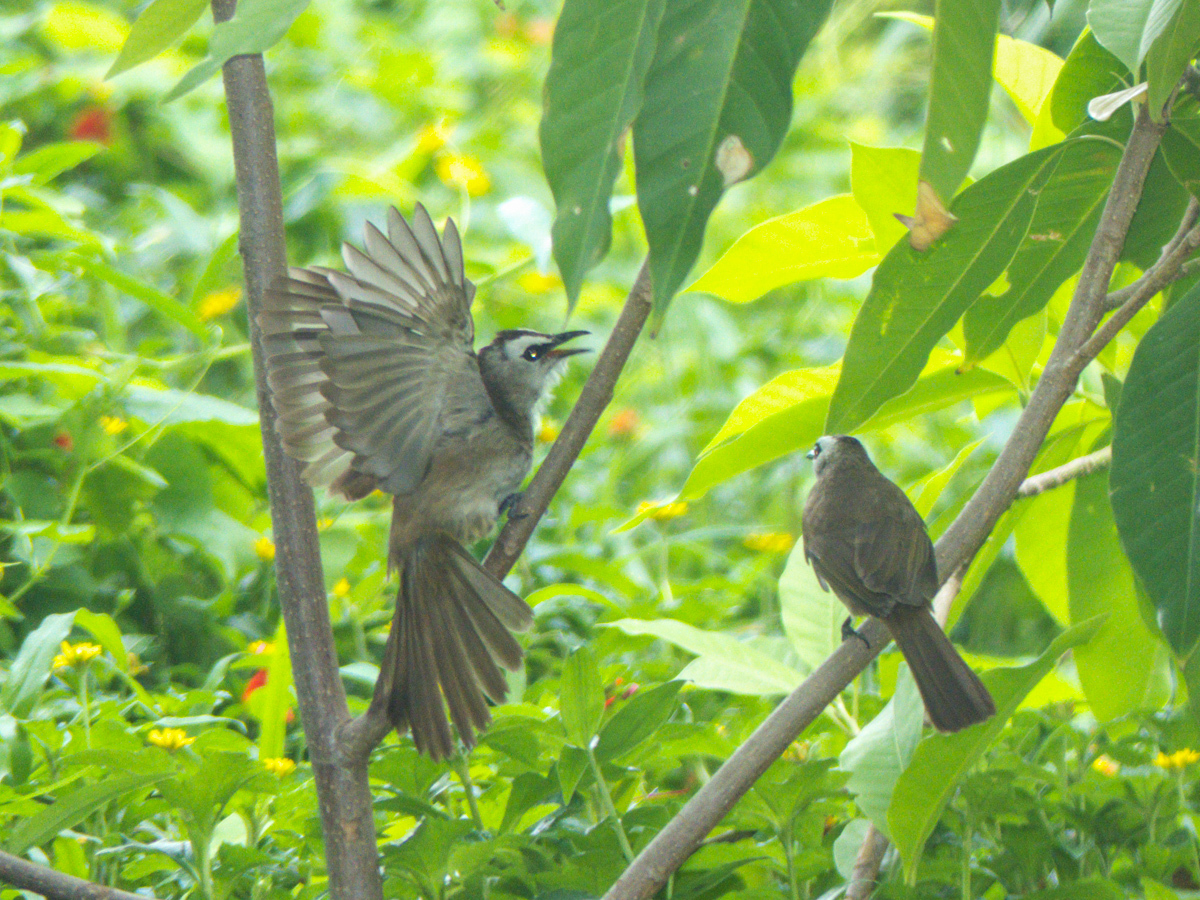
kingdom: Animalia
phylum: Chordata
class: Aves
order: Passeriformes
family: Pycnonotidae
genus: Pycnonotus
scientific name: Pycnonotus goiavier
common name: Yellow-vented bulbul
